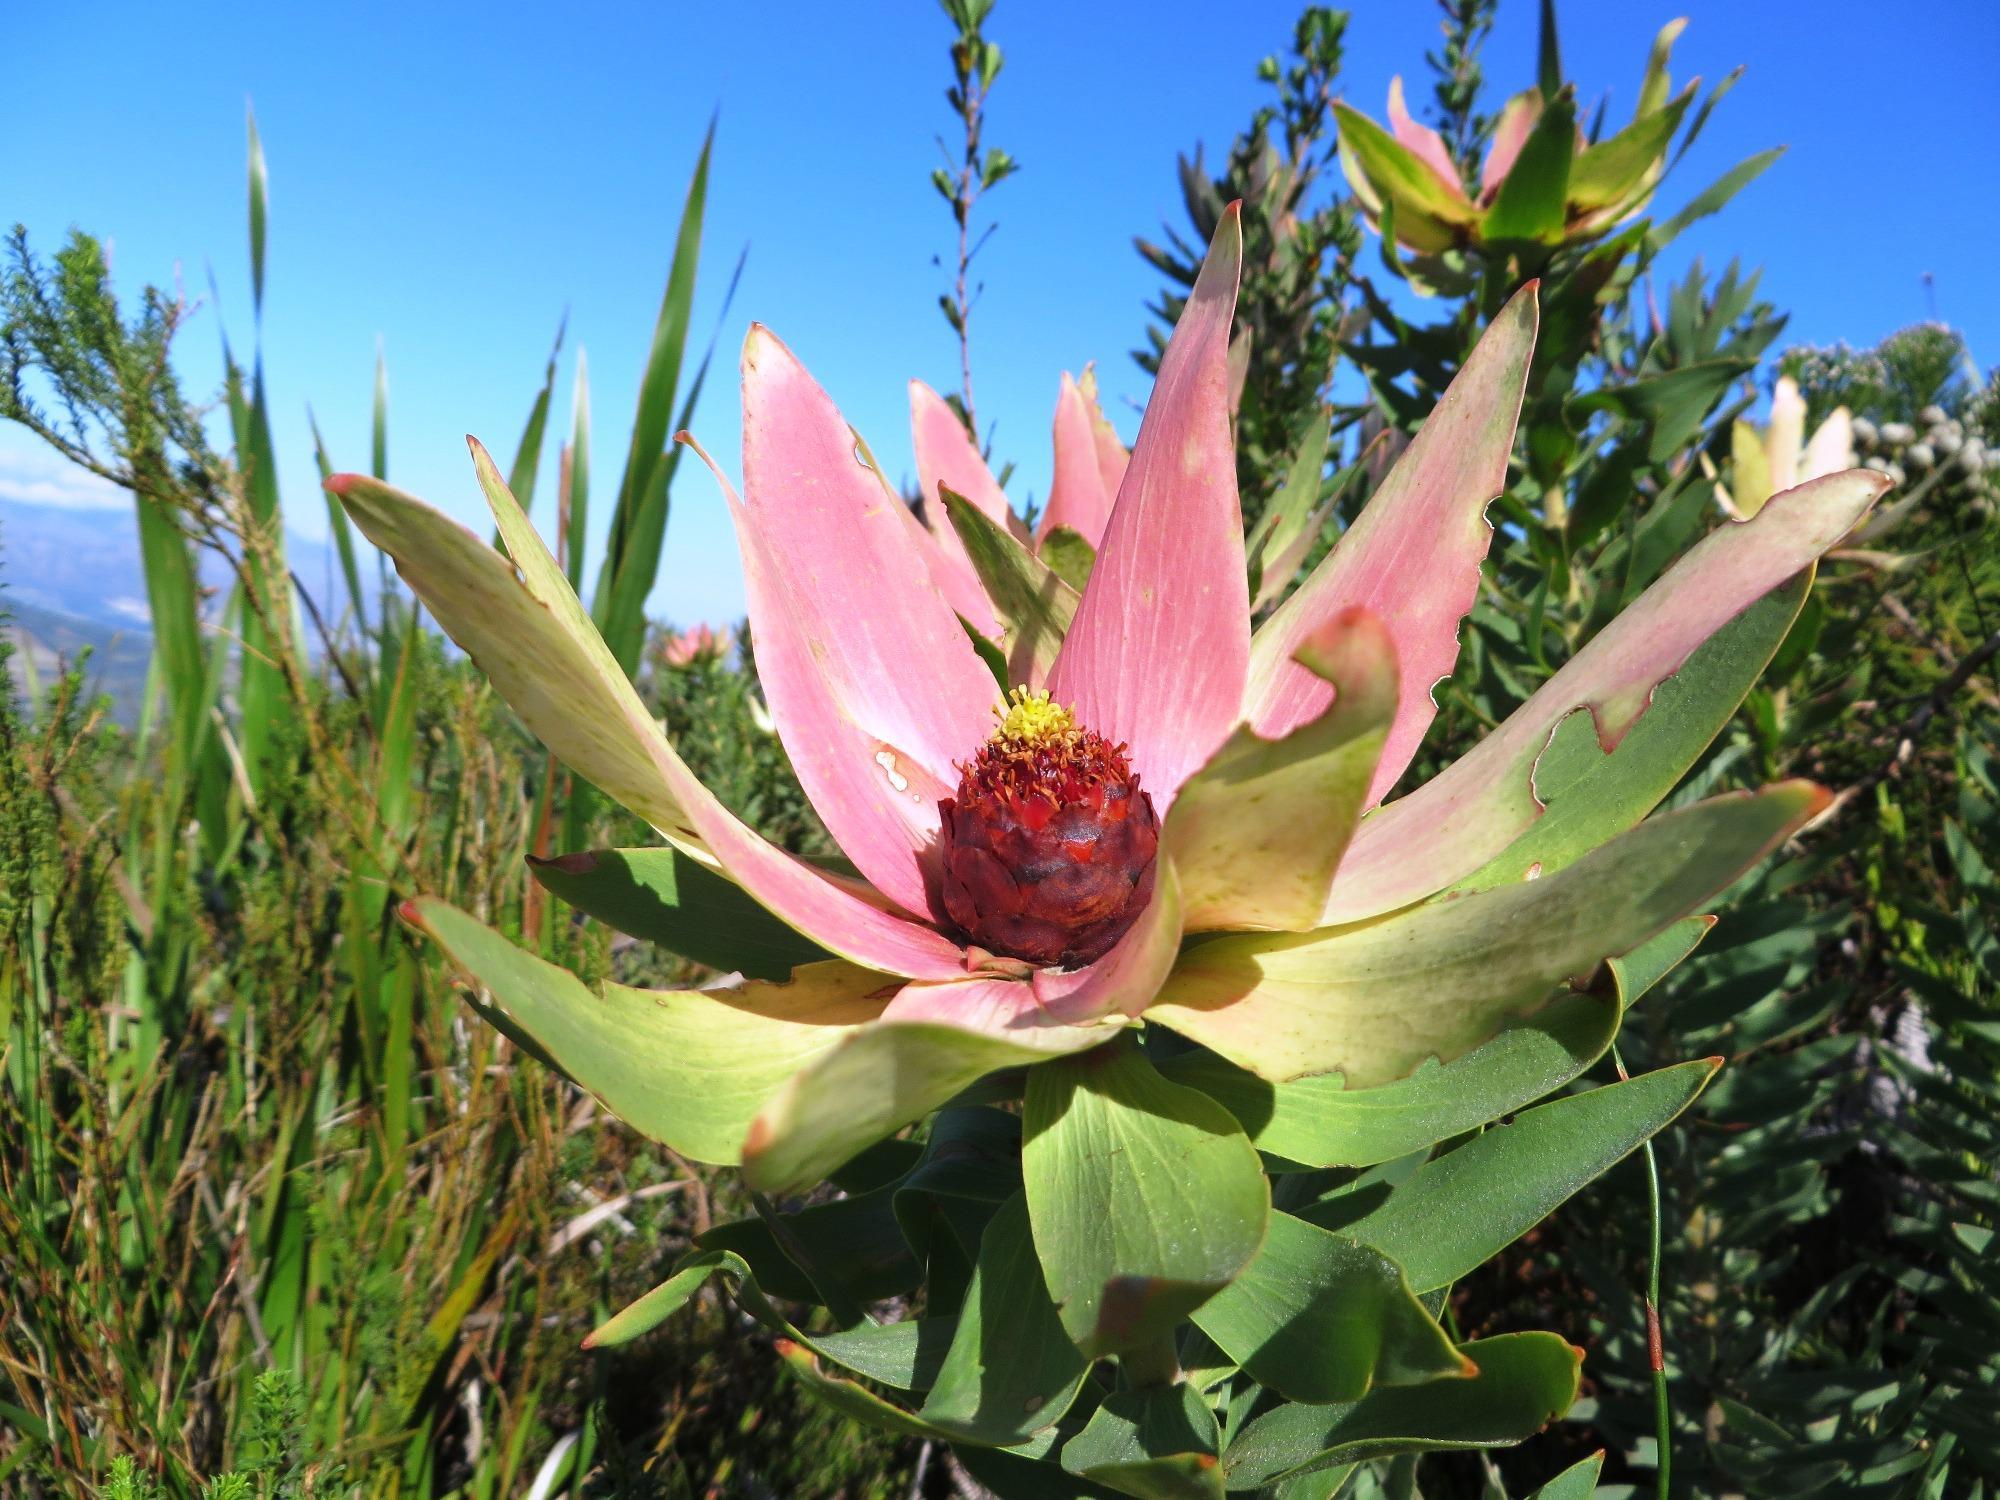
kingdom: Plantae
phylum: Tracheophyta
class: Magnoliopsida
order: Proteales
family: Proteaceae
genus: Leucadendron
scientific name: Leucadendron sessile
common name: Western sunbush
